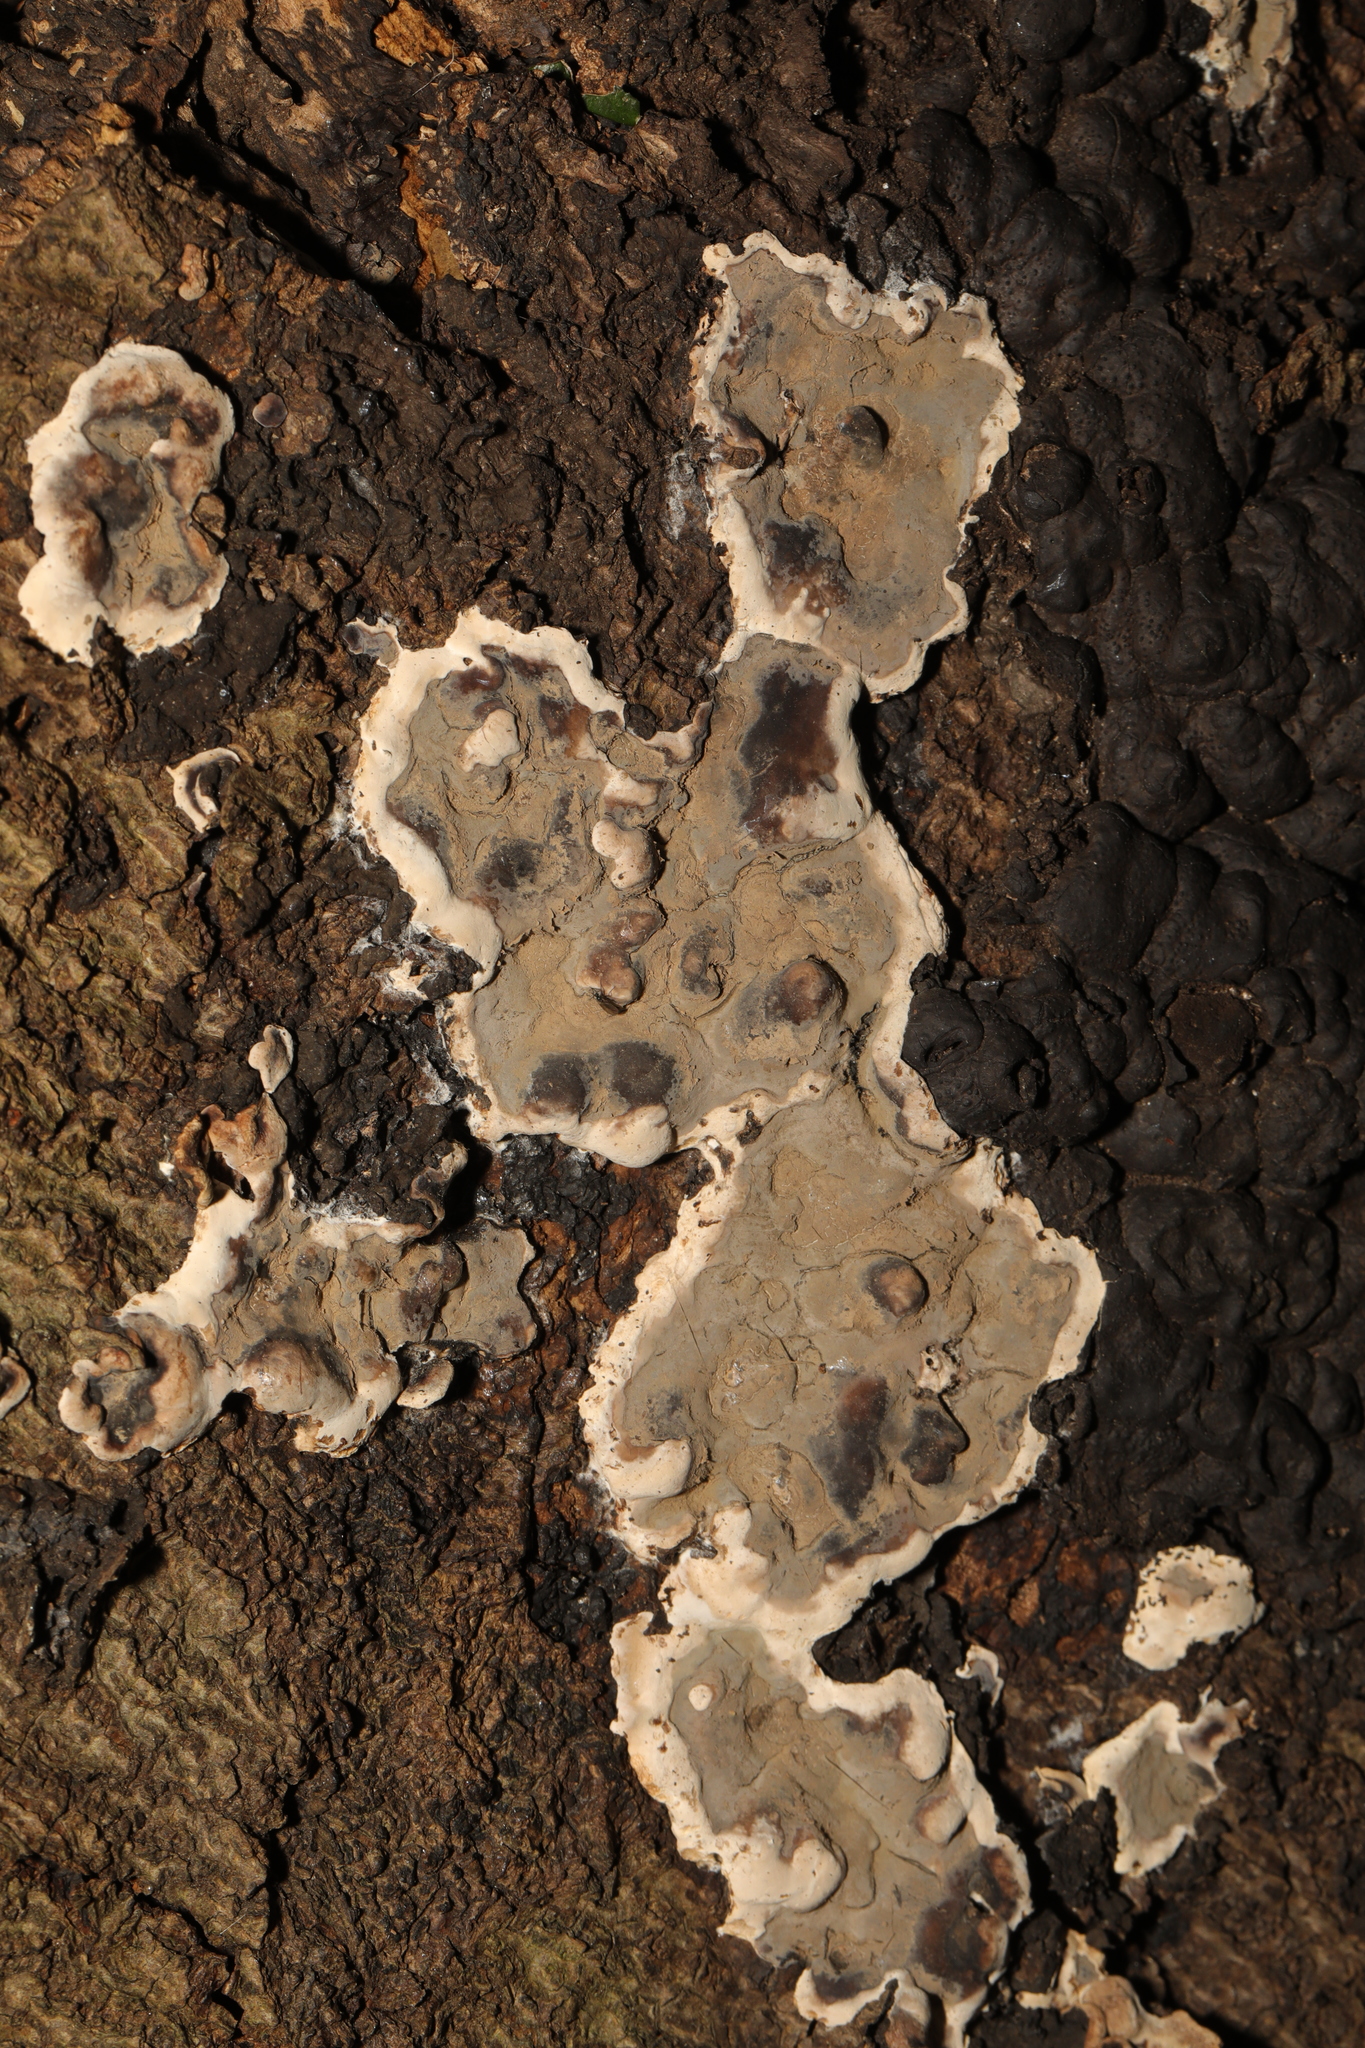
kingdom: Fungi
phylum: Ascomycota
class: Sordariomycetes
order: Xylariales
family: Xylariaceae
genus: Kretzschmaria
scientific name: Kretzschmaria deusta
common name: Brittle cinder
